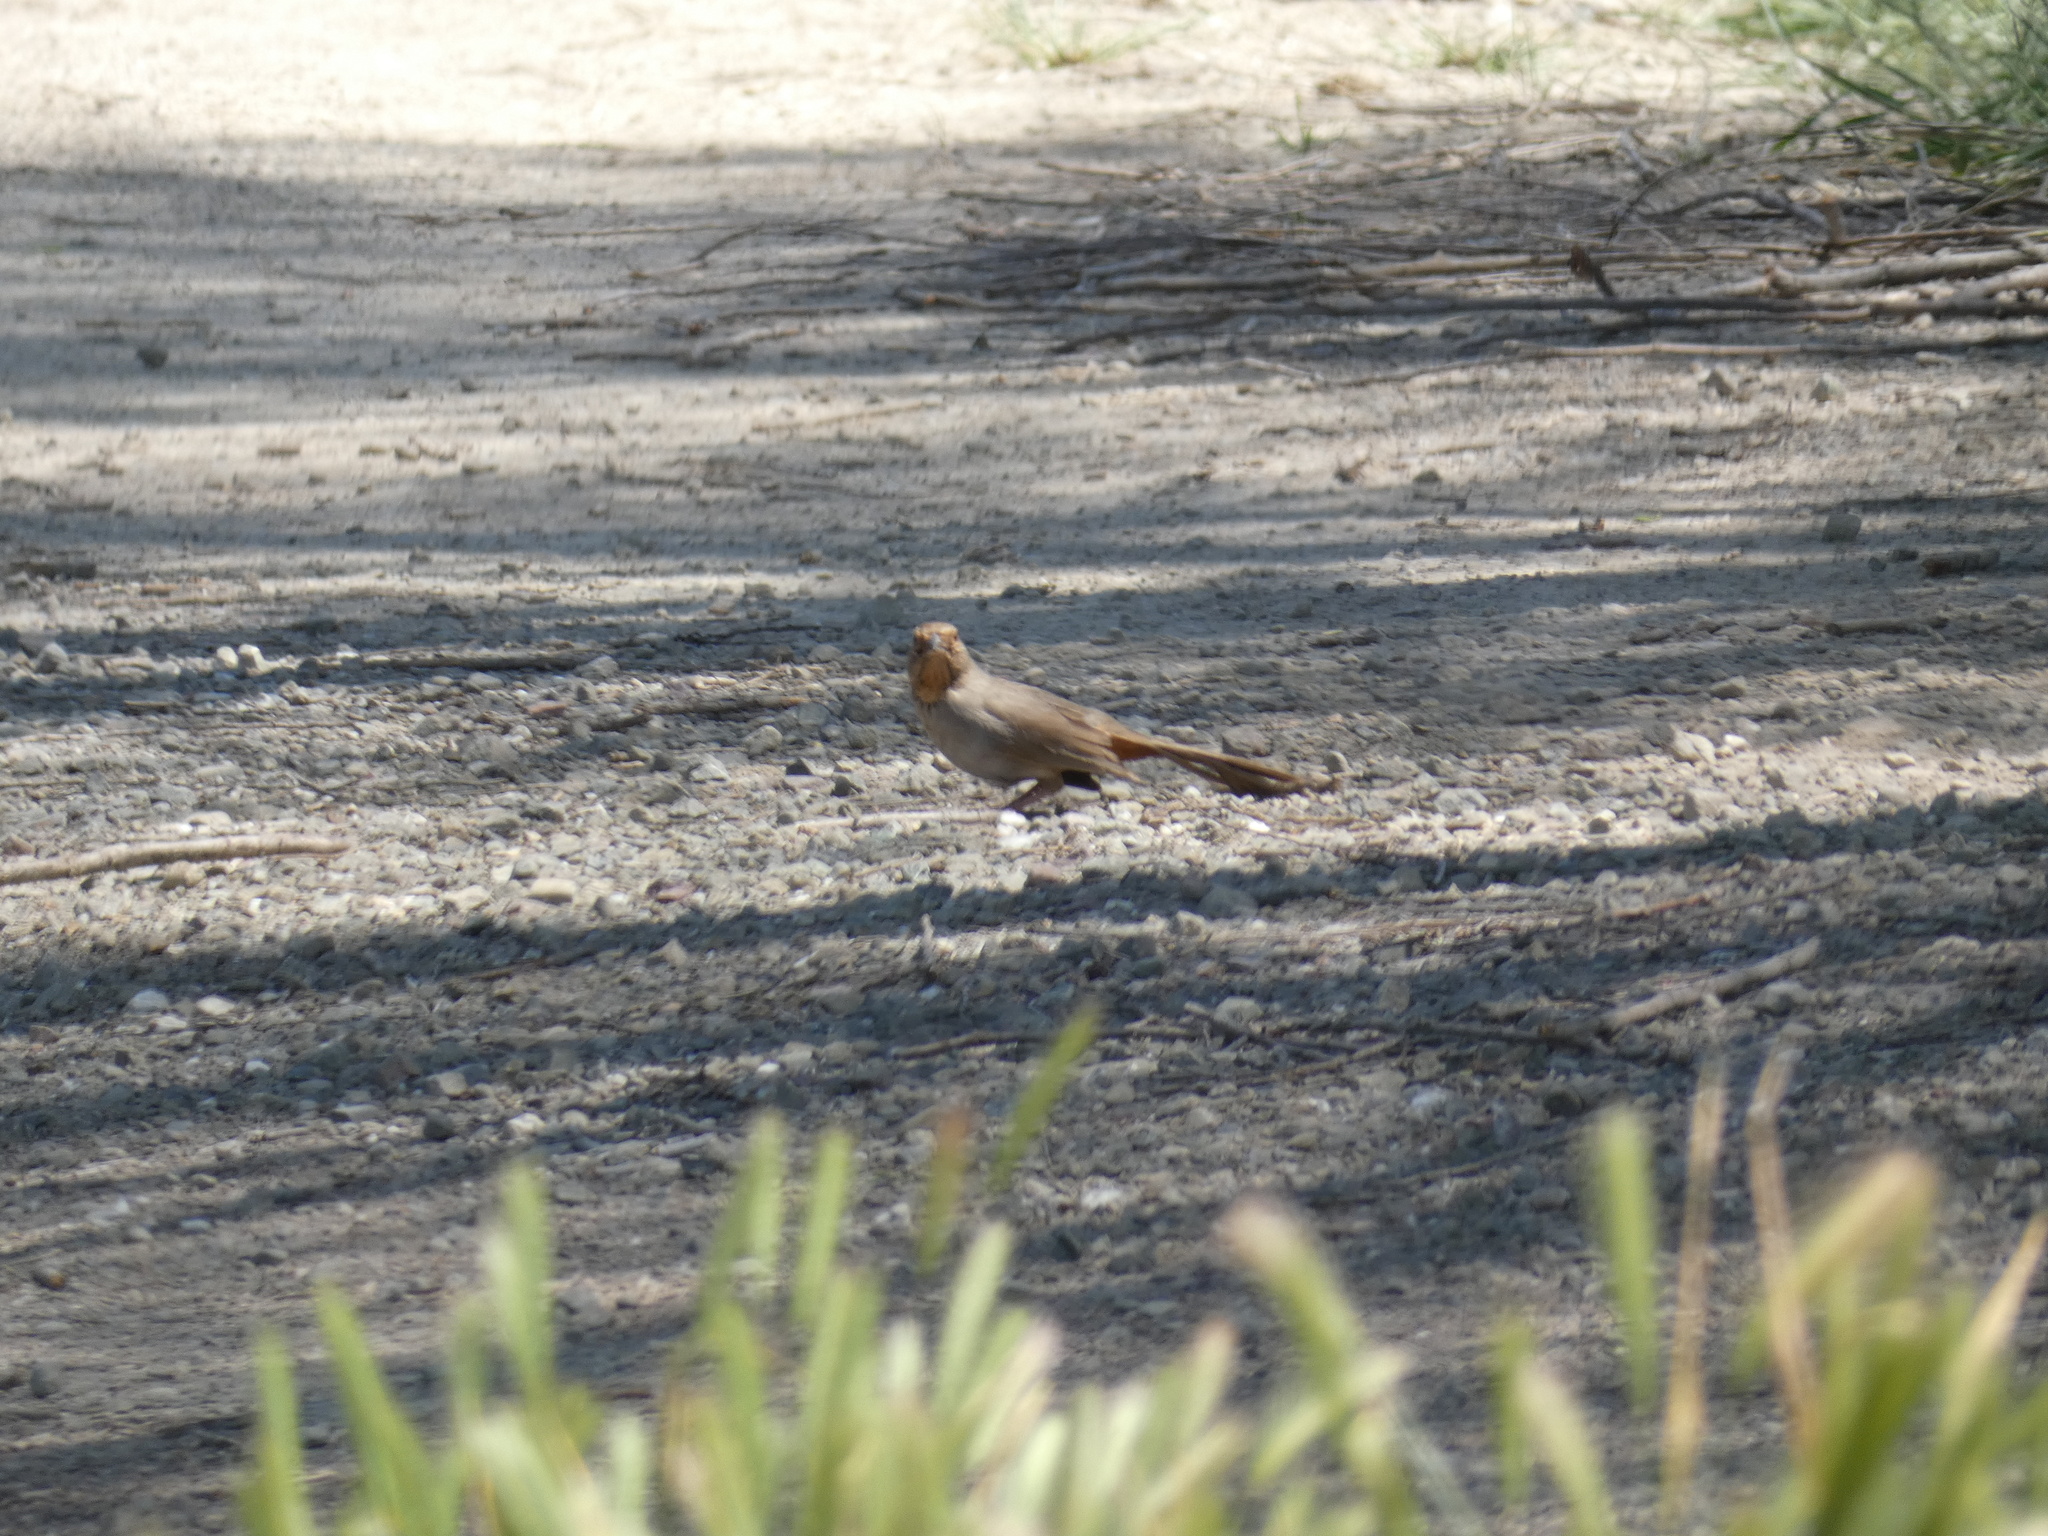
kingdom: Animalia
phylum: Chordata
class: Aves
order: Passeriformes
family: Passerellidae
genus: Melozone
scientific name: Melozone crissalis
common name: California towhee
